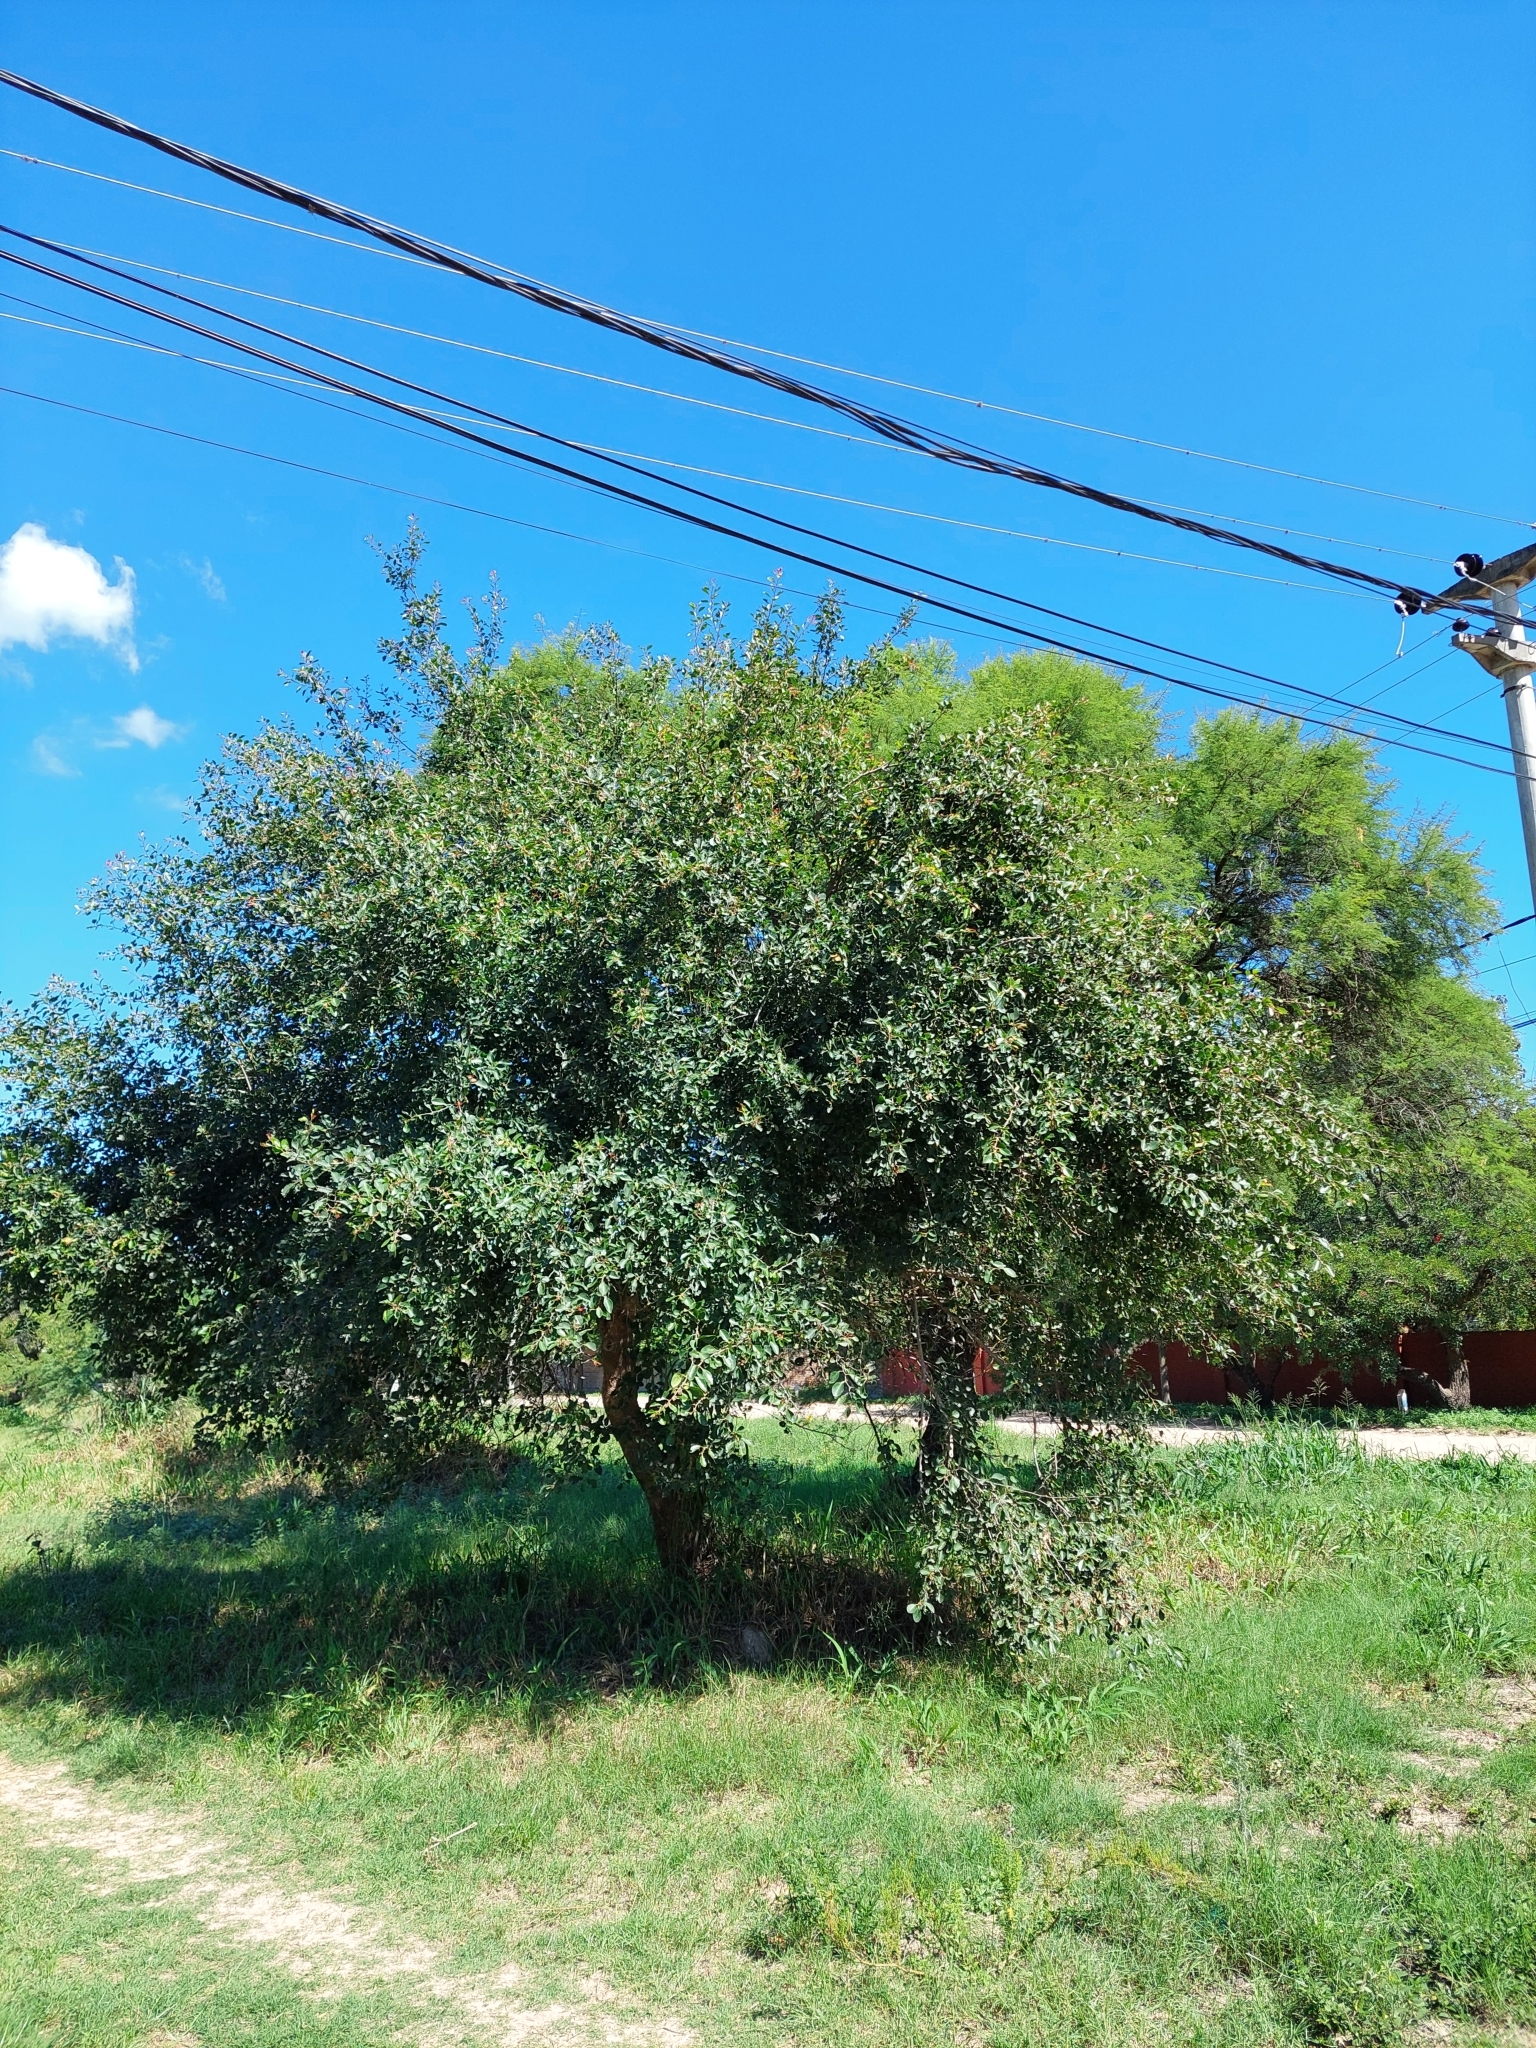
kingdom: Plantae
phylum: Tracheophyta
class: Magnoliopsida
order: Malpighiales
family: Salicaceae
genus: Xylosma
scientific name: Xylosma venosa
